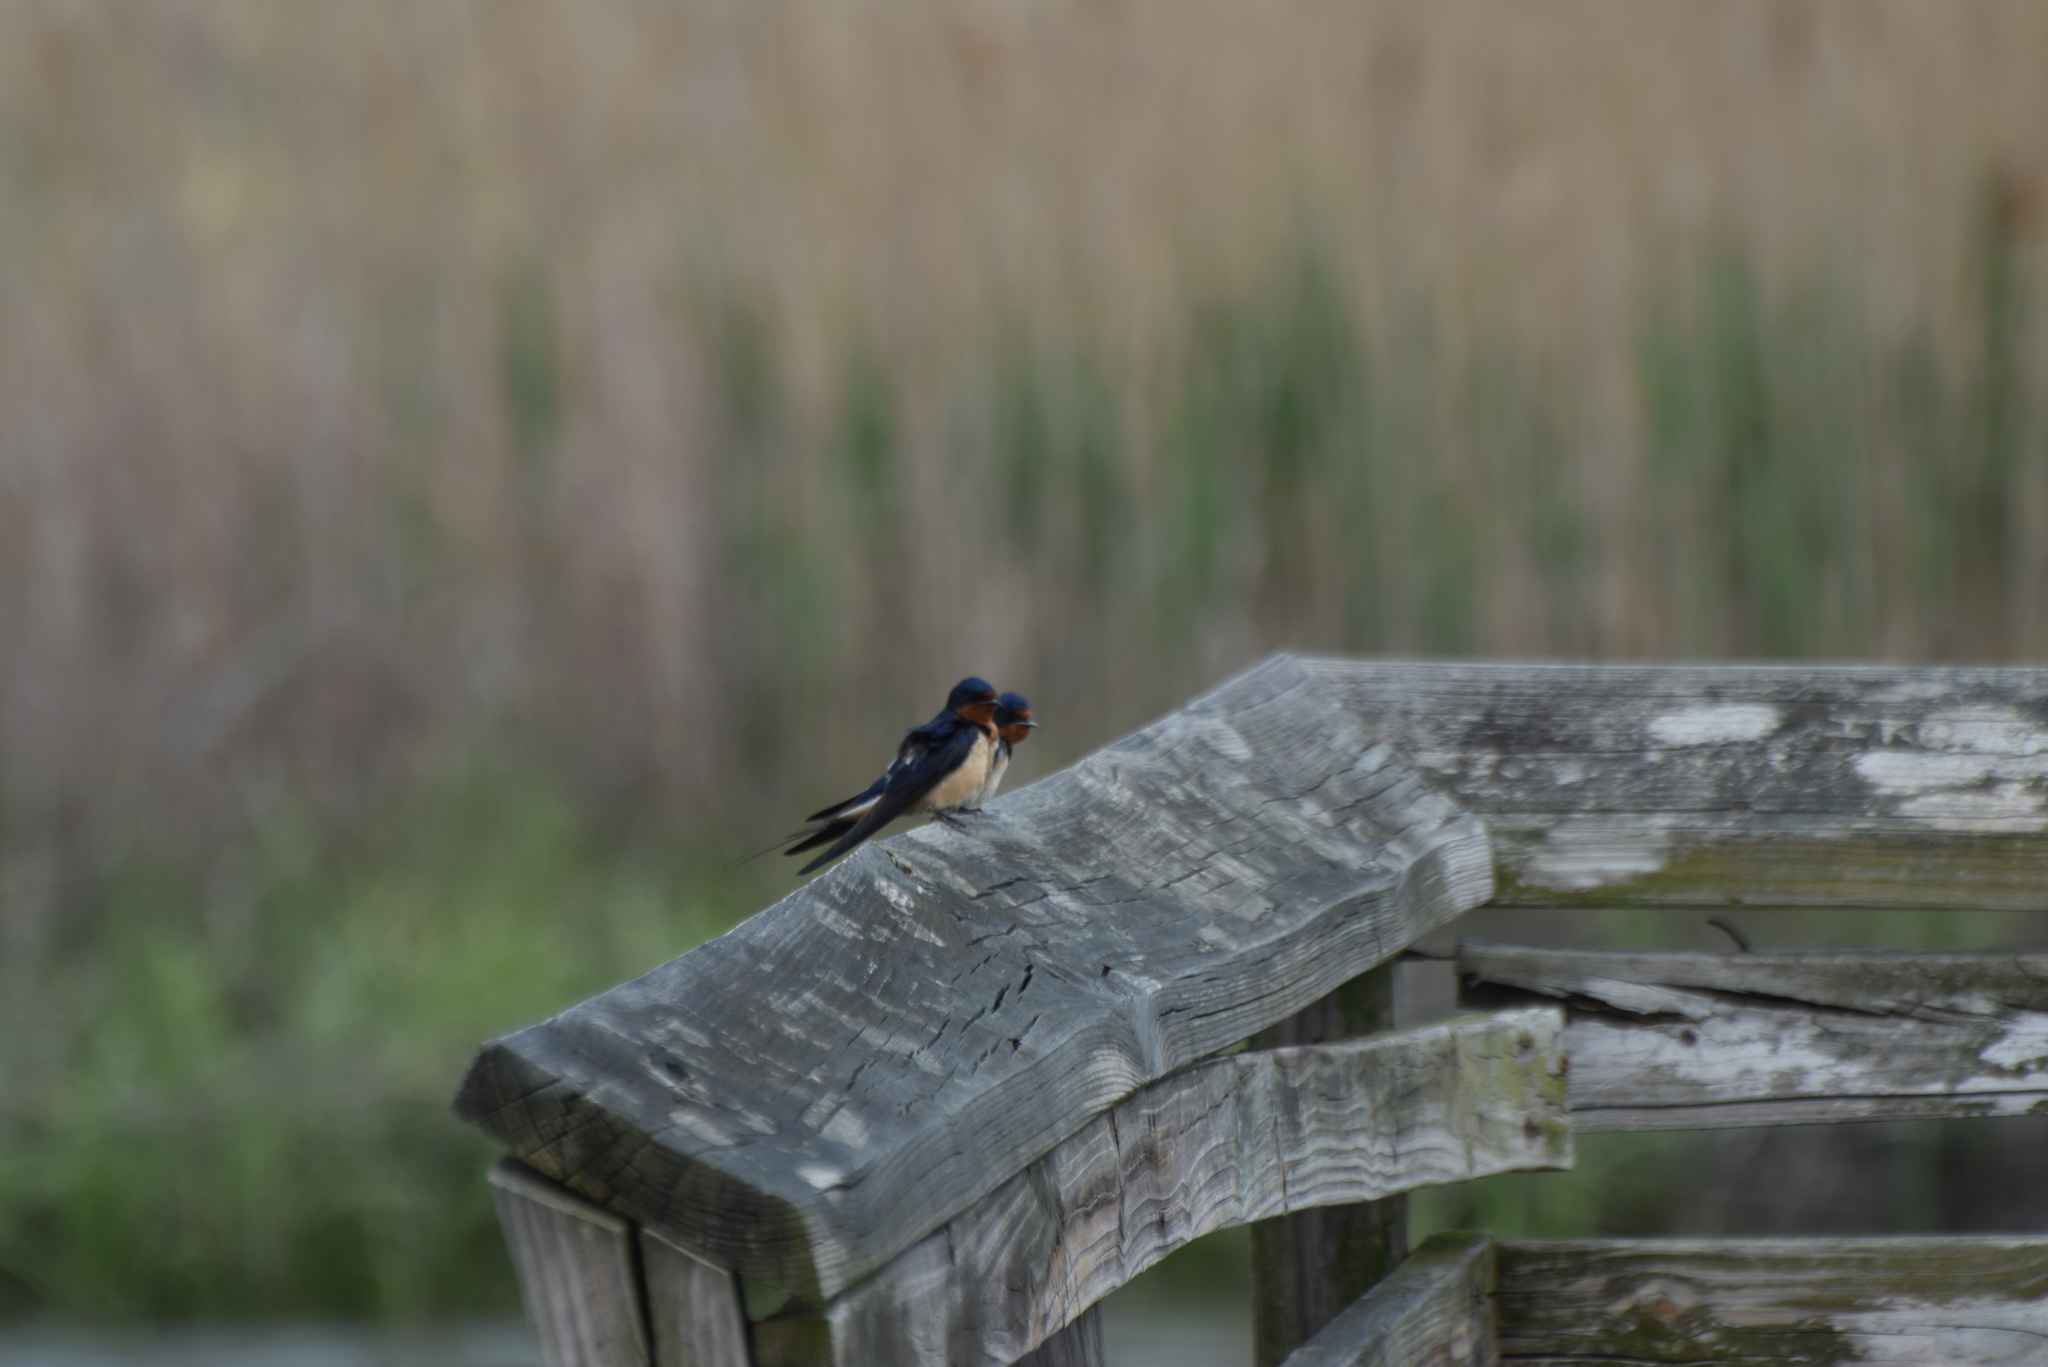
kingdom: Animalia
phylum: Chordata
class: Aves
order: Passeriformes
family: Hirundinidae
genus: Hirundo
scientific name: Hirundo rustica
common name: Barn swallow
